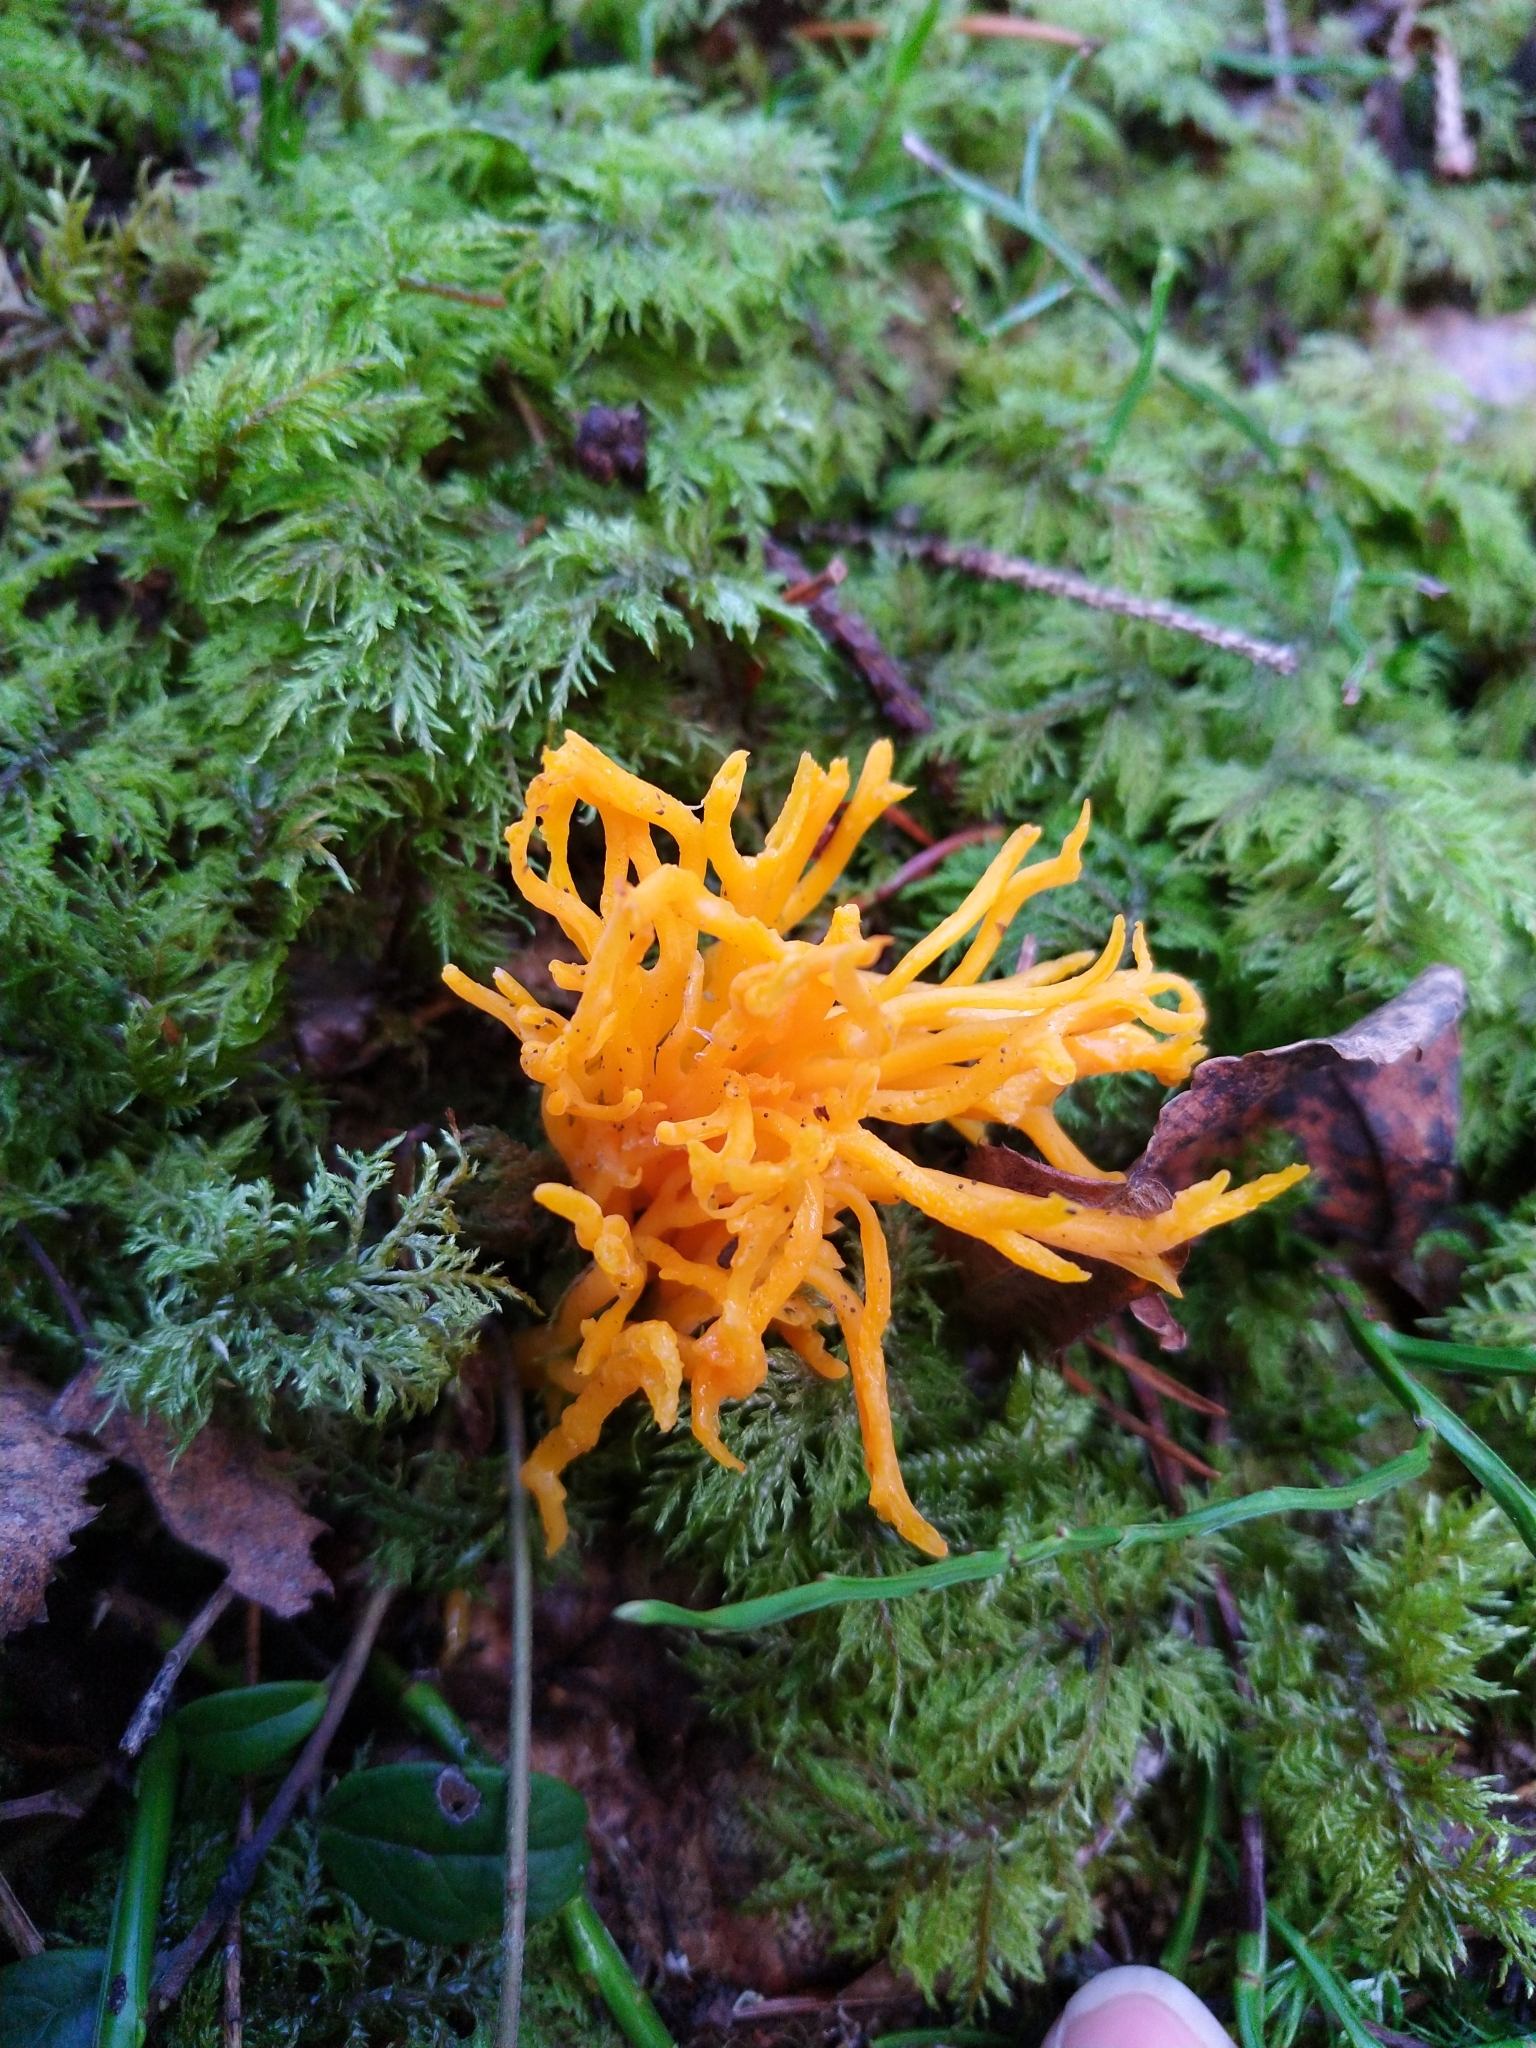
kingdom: Fungi
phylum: Basidiomycota
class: Dacrymycetes
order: Dacrymycetales
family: Dacrymycetaceae
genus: Calocera
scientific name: Calocera viscosa
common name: Yellow stagshorn
